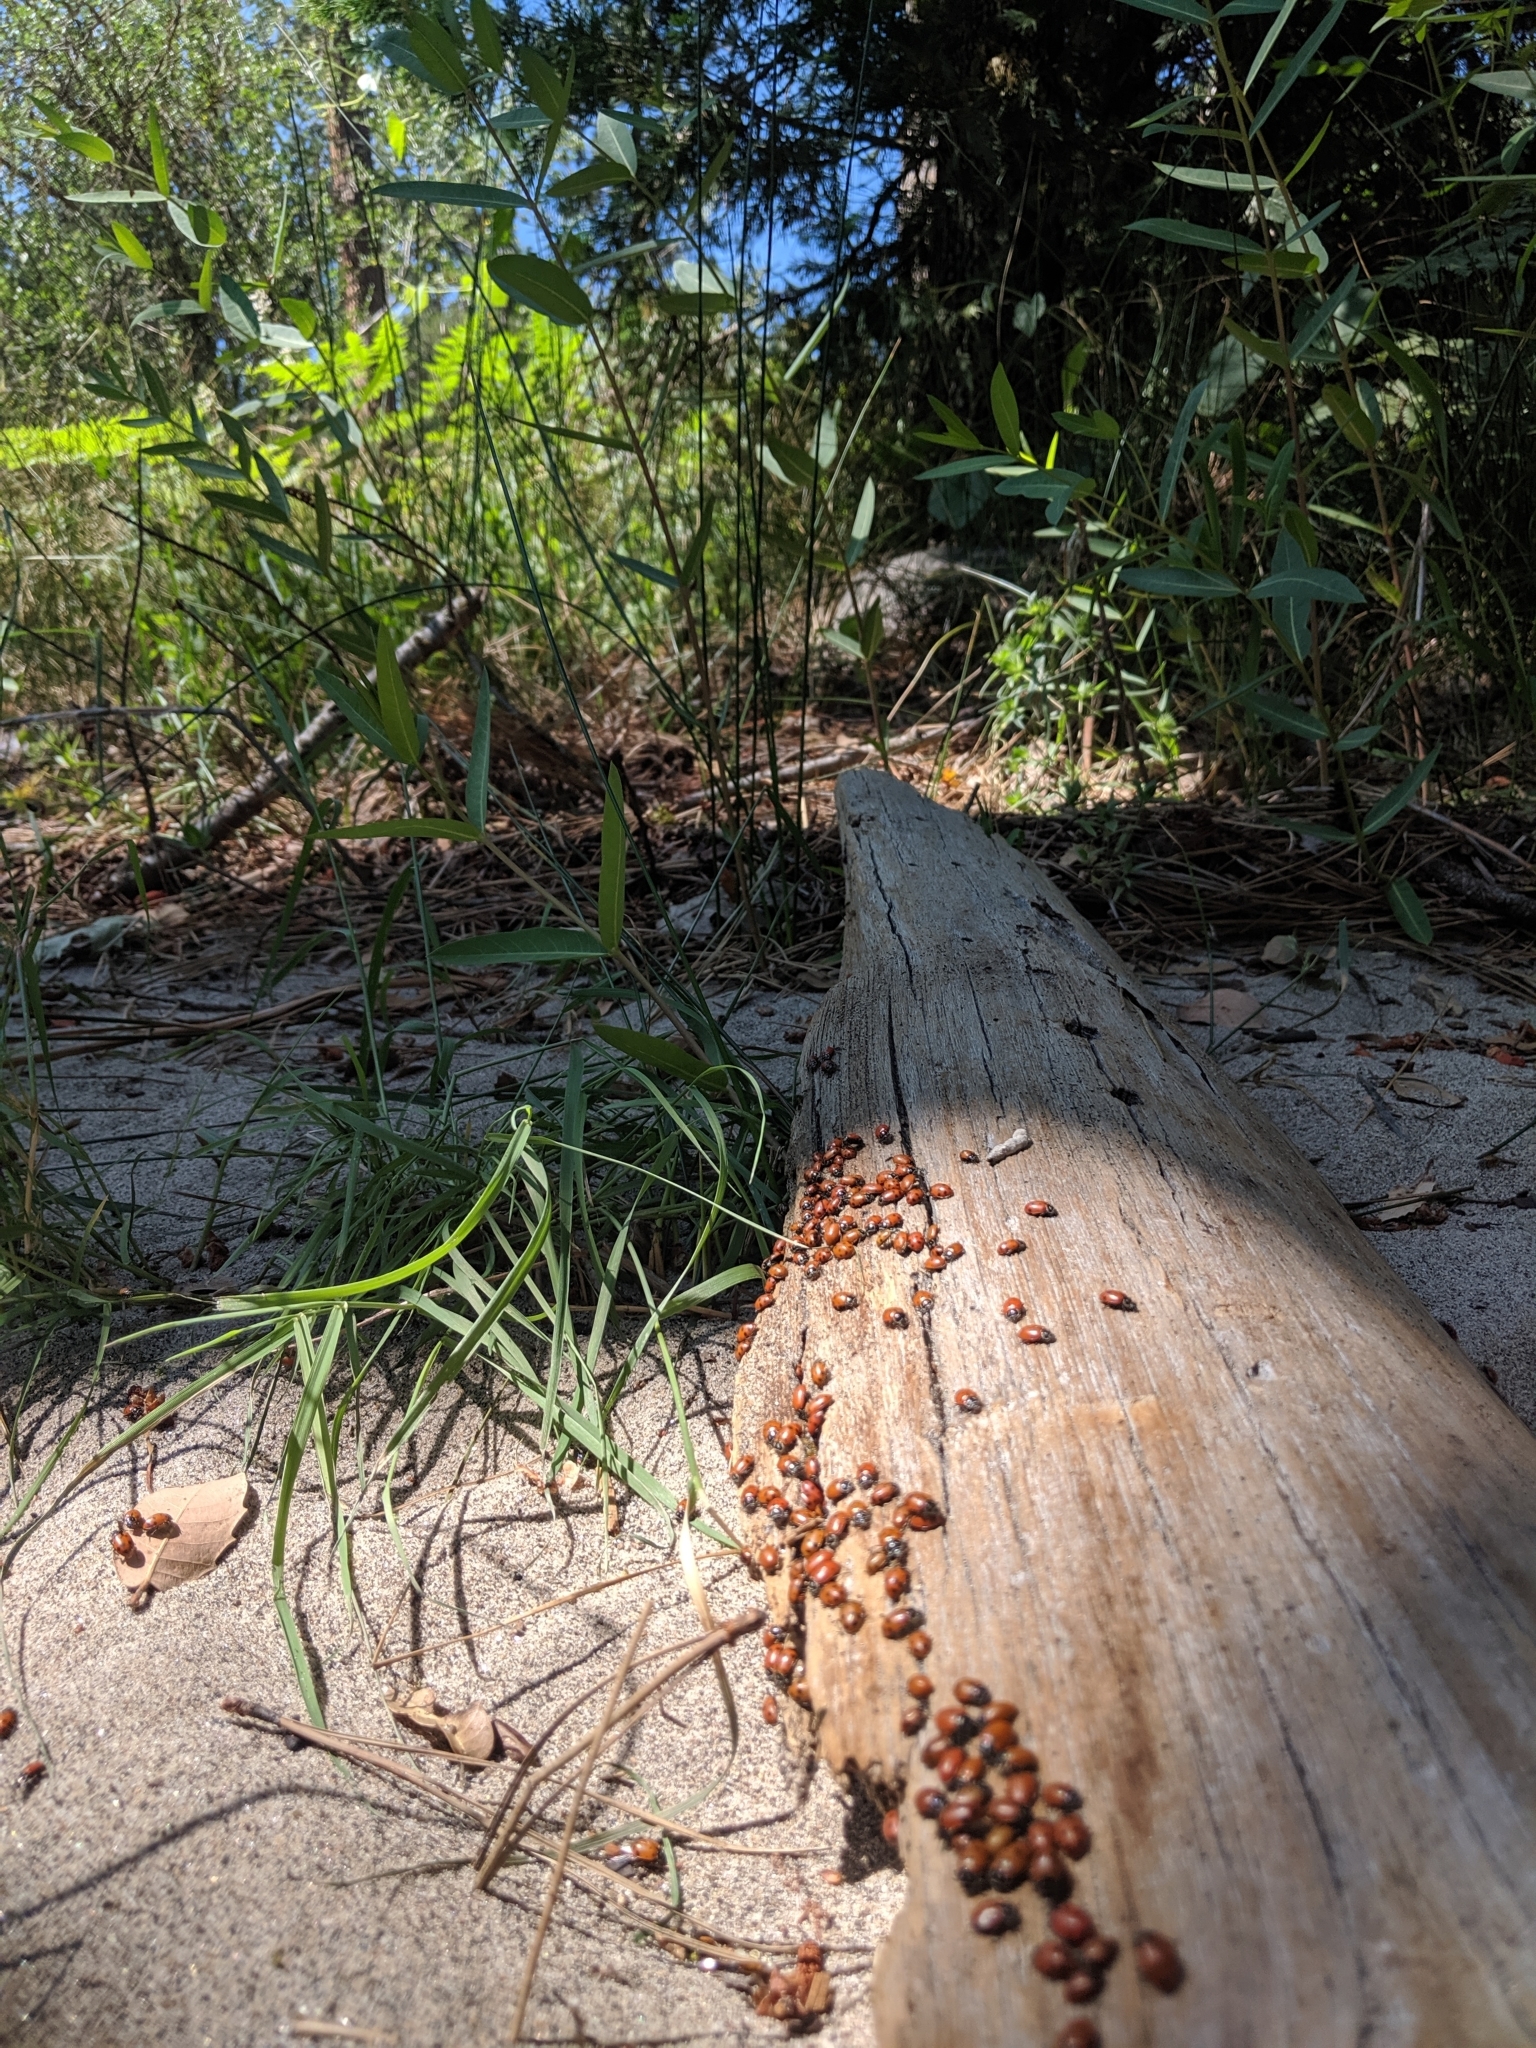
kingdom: Animalia
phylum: Arthropoda
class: Insecta
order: Coleoptera
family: Coccinellidae
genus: Hippodamia
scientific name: Hippodamia convergens
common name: Convergent lady beetle
